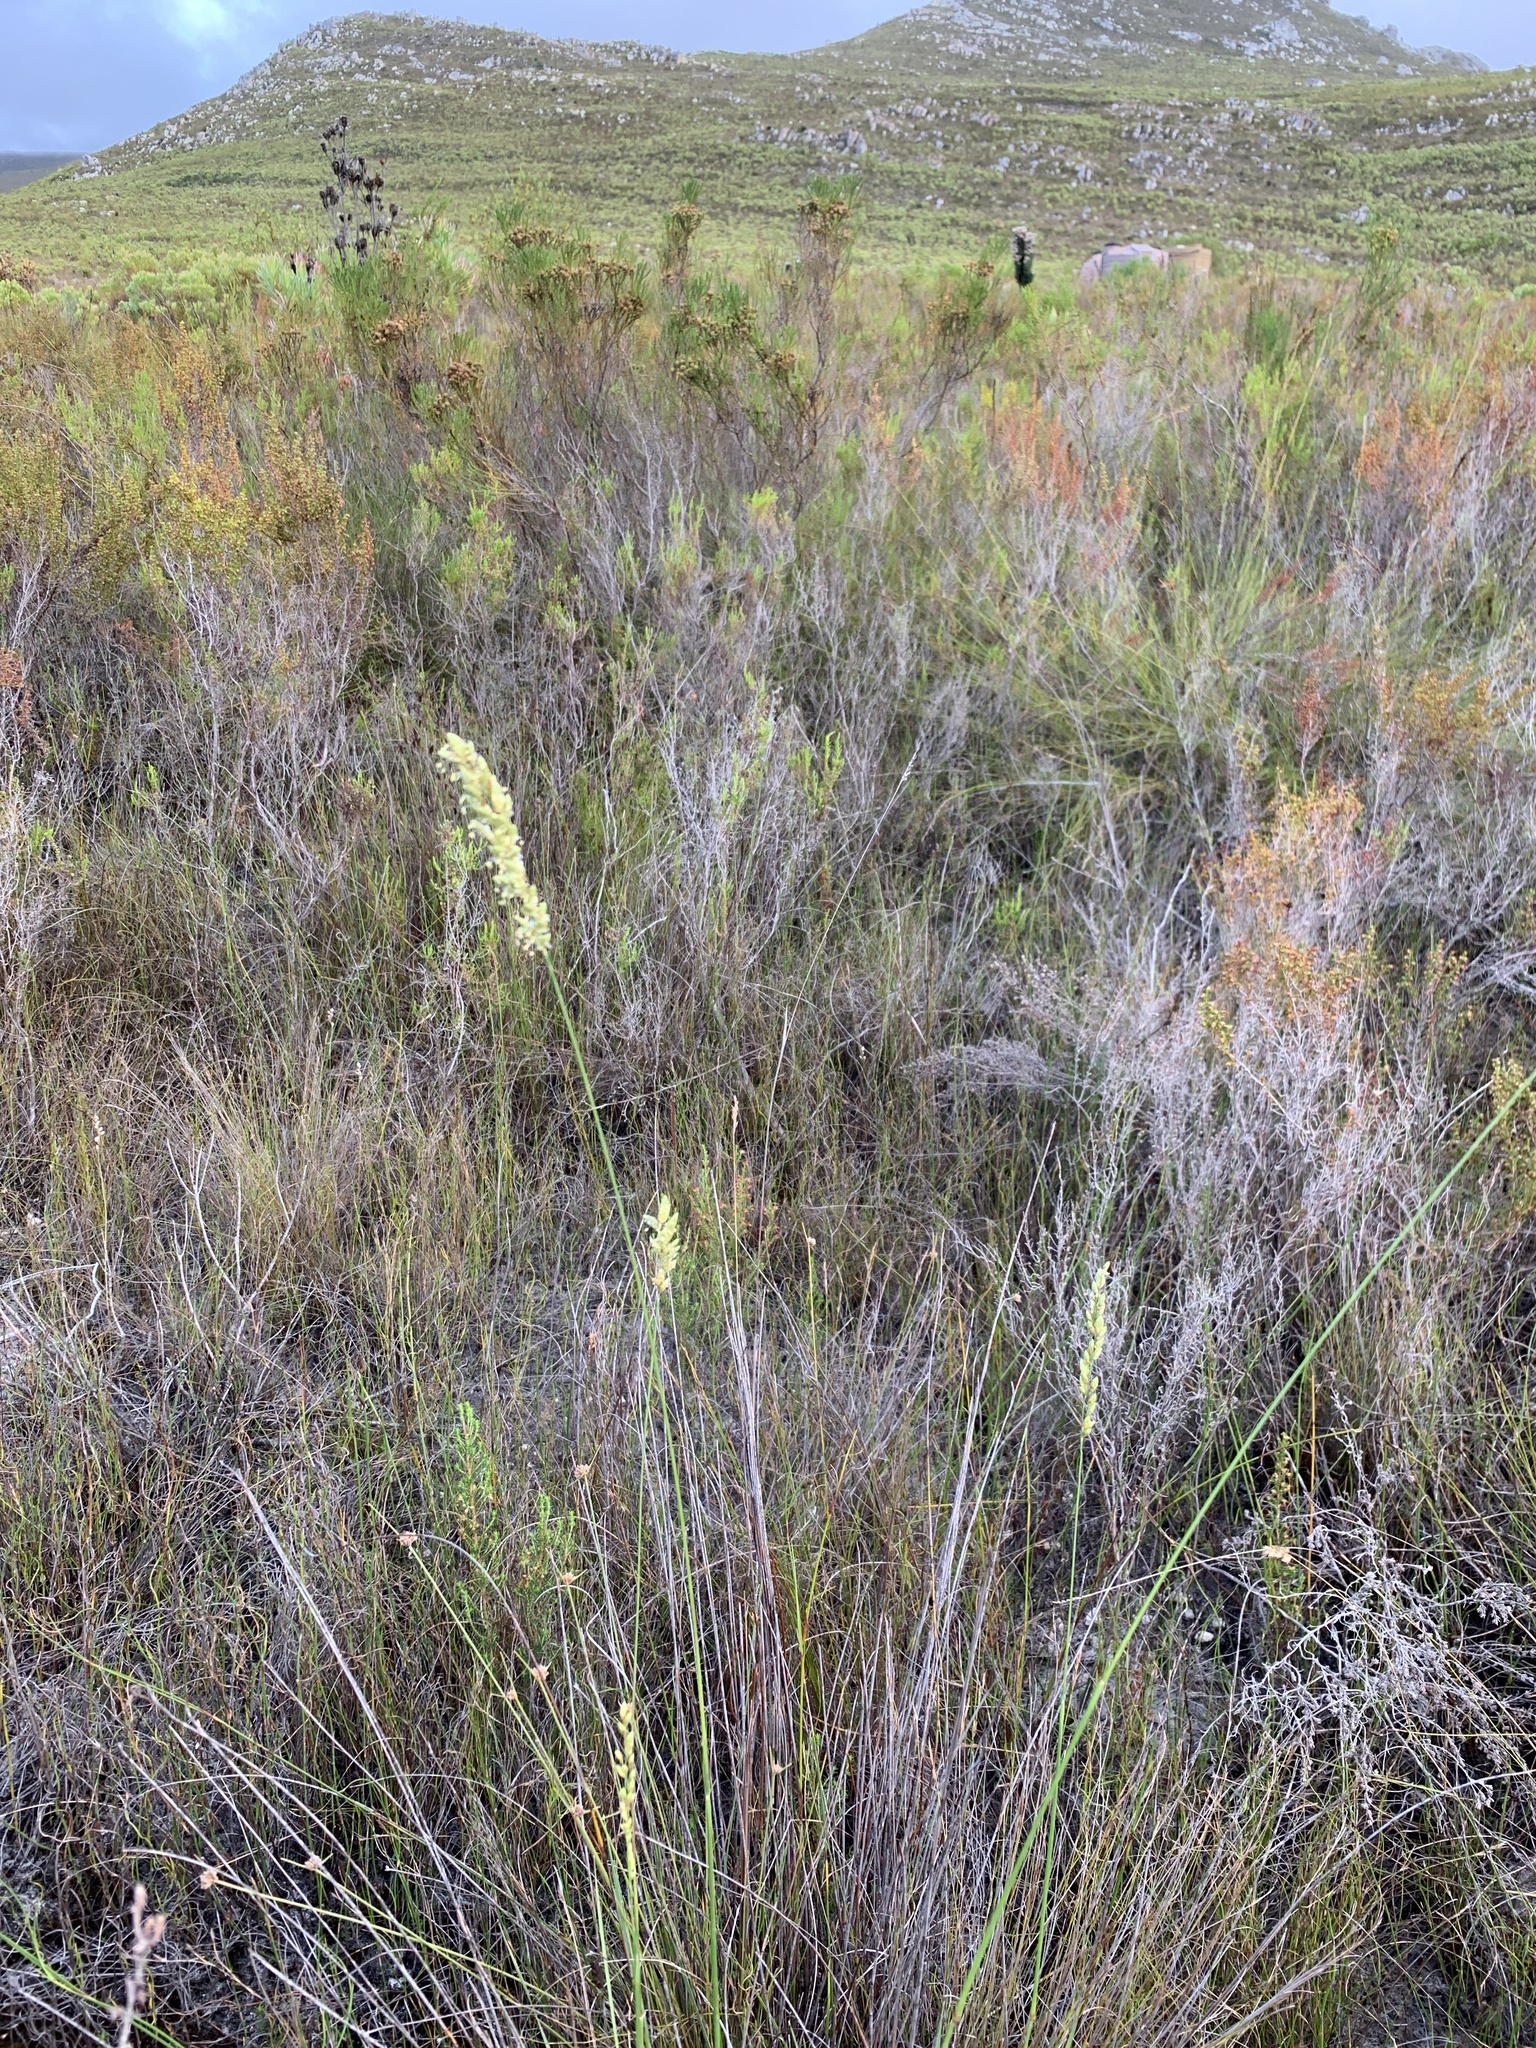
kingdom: Plantae
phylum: Tracheophyta
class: Liliopsida
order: Poales
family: Poaceae
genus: Eragrostis
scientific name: Eragrostis capensis
